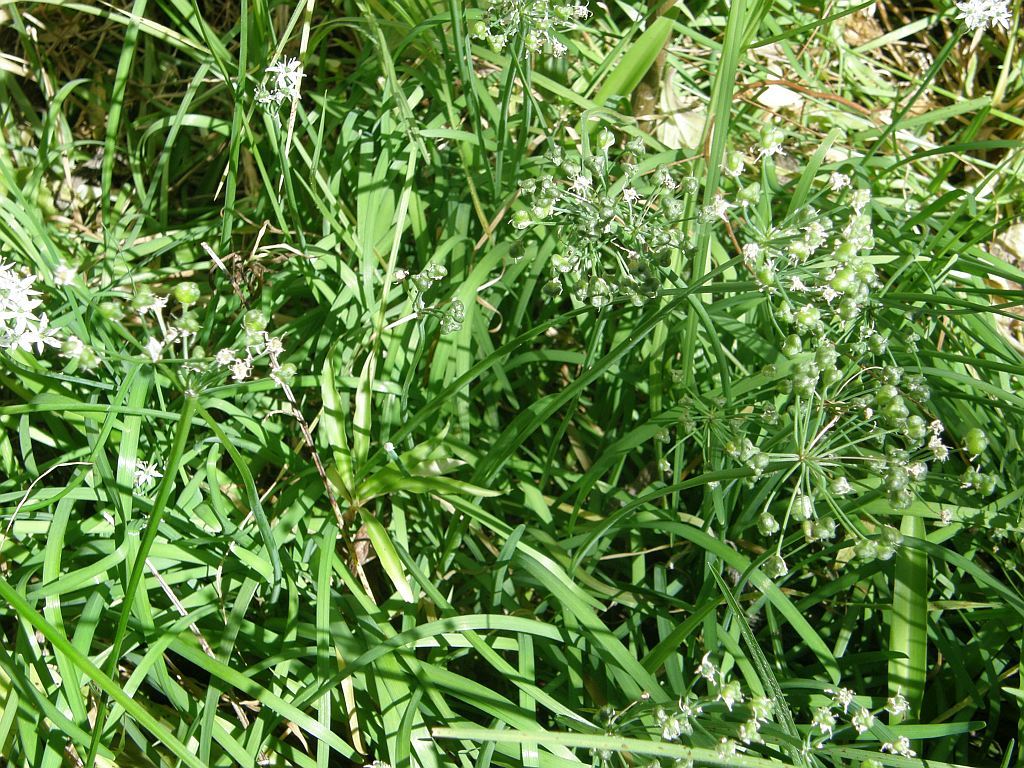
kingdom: Plantae
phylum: Tracheophyta
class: Liliopsida
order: Asparagales
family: Amaryllidaceae
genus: Allium
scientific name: Allium tuberosum
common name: Chinese chives
